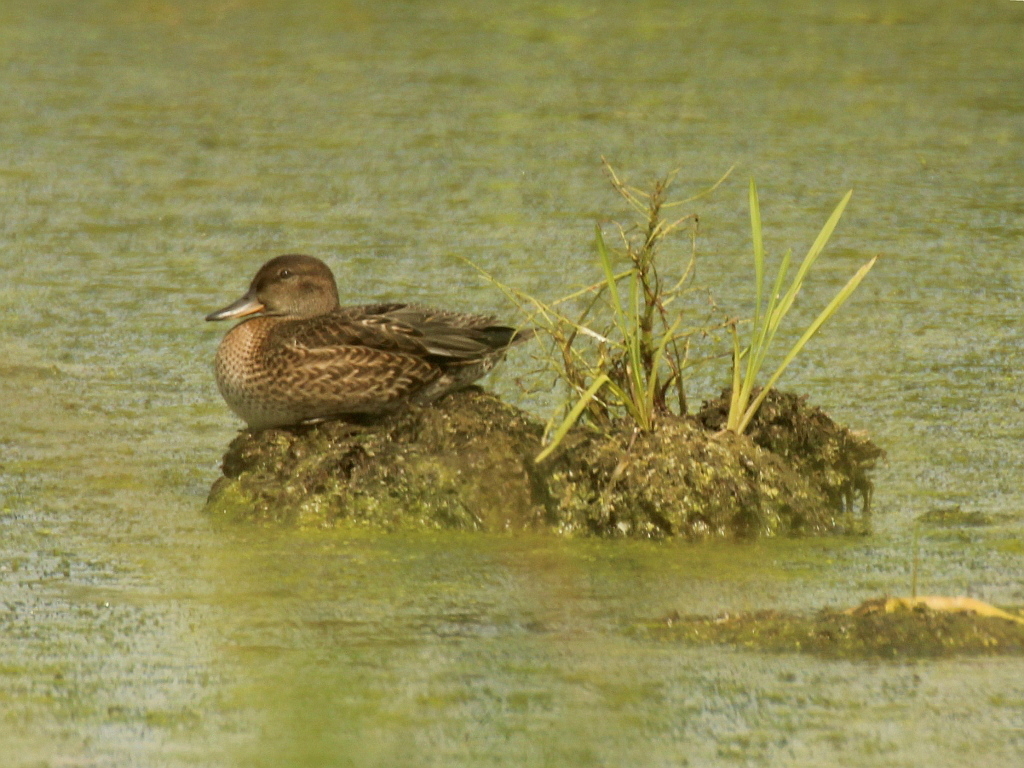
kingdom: Animalia
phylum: Chordata
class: Aves
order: Anseriformes
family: Anatidae
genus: Anas
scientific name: Anas crecca
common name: Eurasian teal
